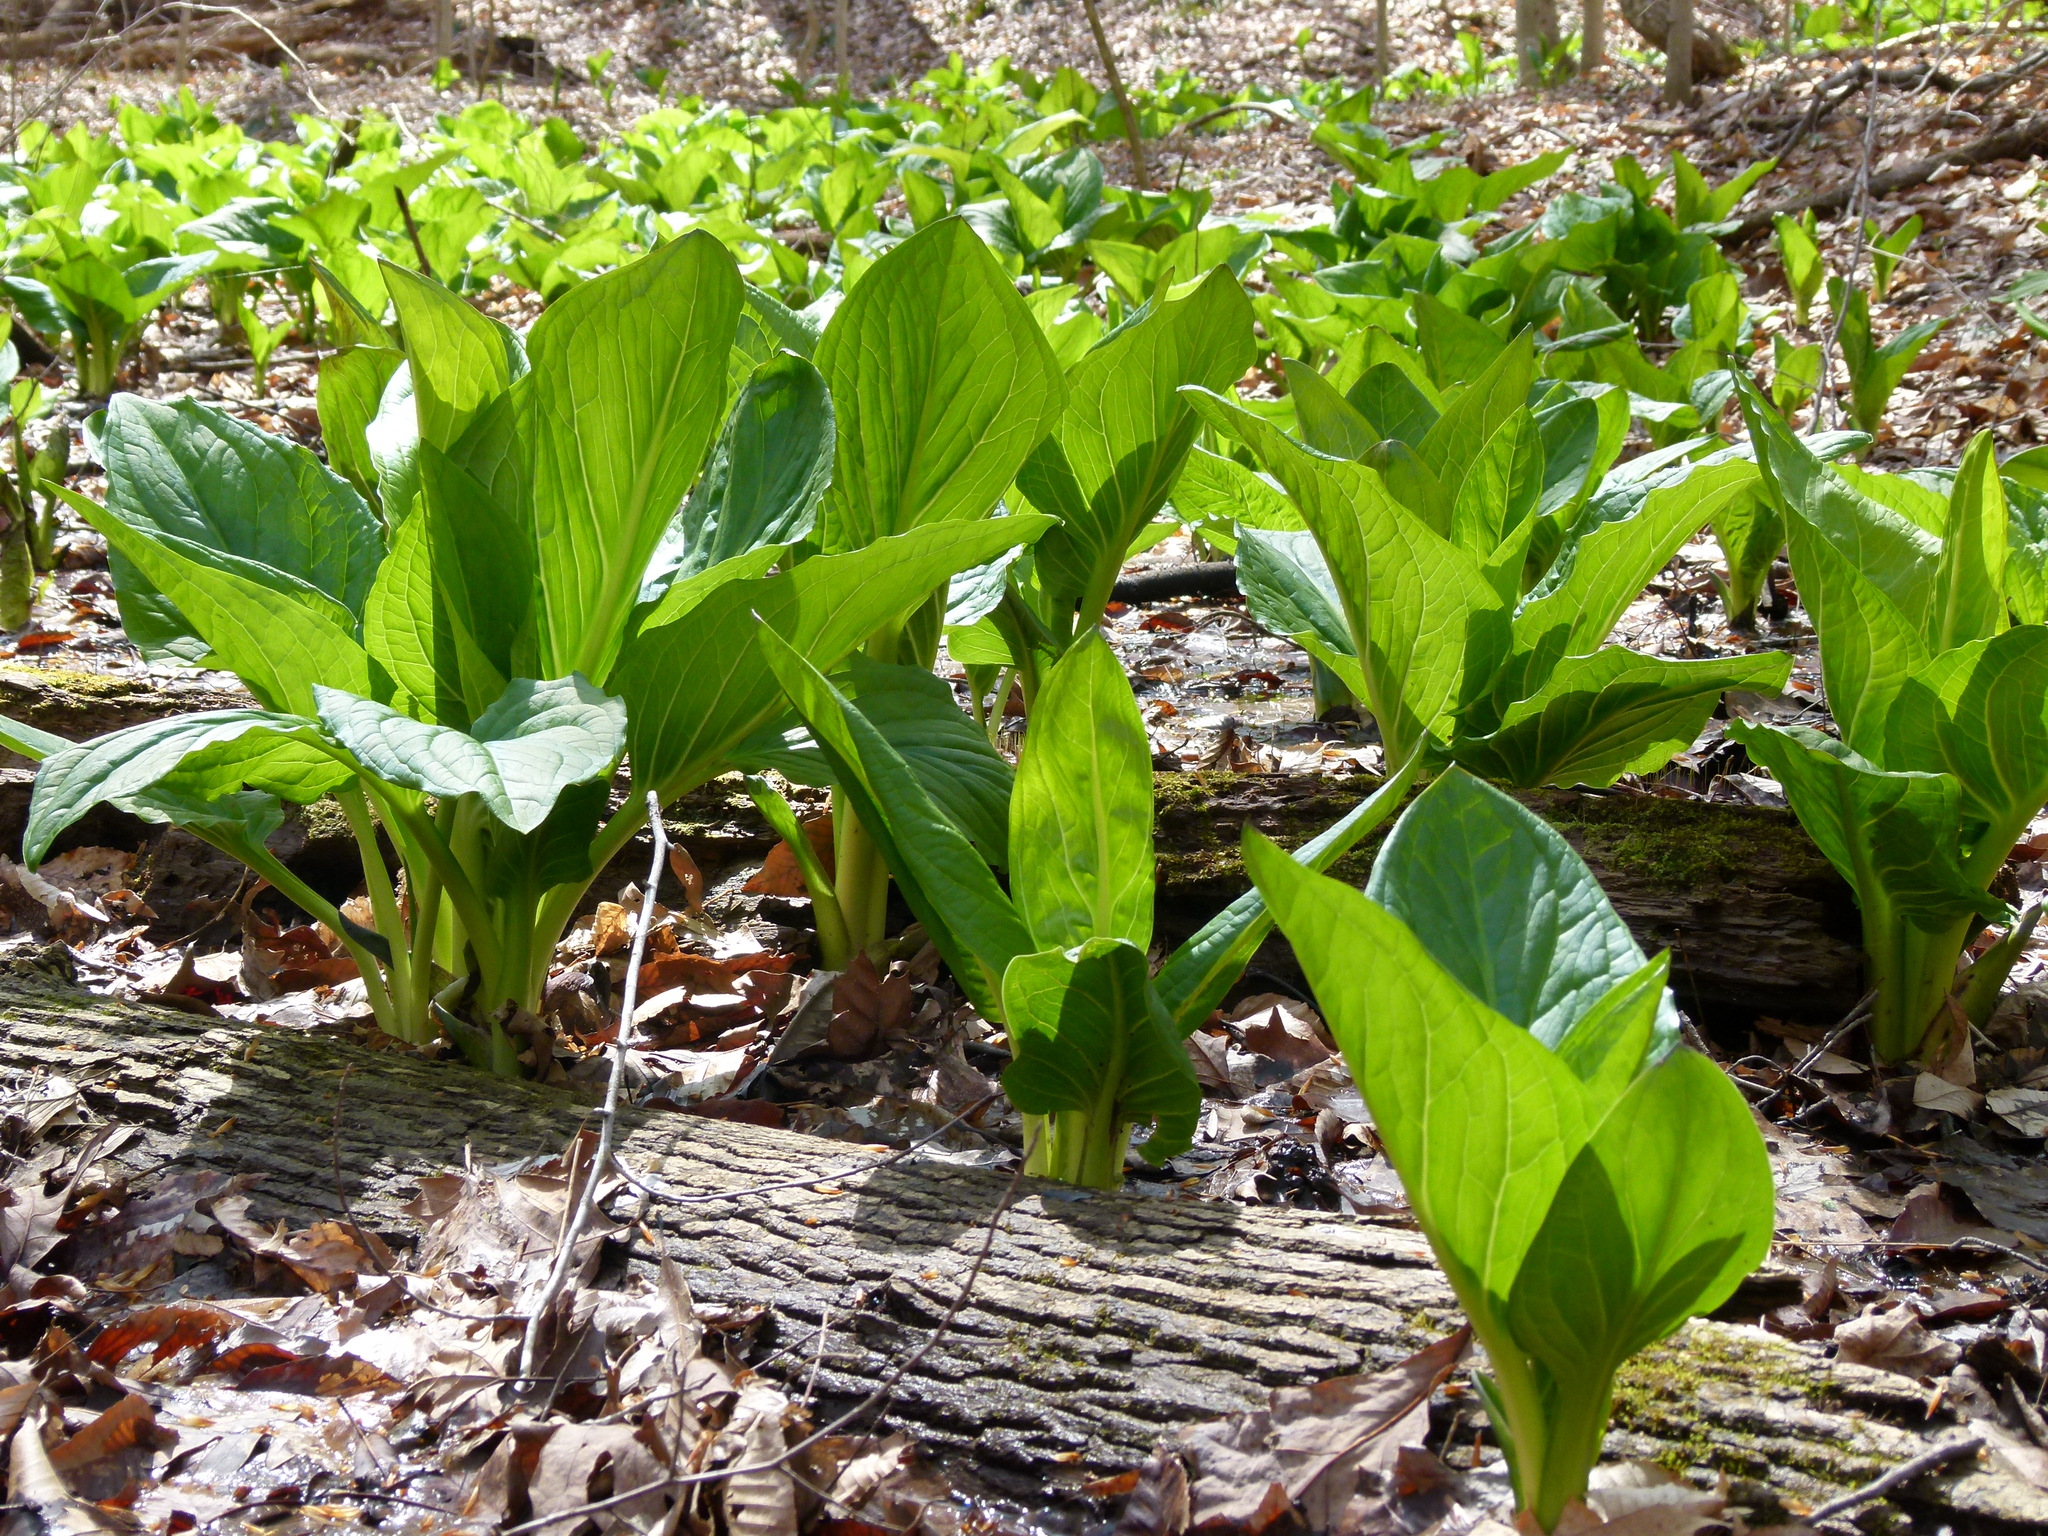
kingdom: Plantae
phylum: Tracheophyta
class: Liliopsida
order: Alismatales
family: Araceae
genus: Symplocarpus
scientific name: Symplocarpus foetidus
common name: Eastern skunk cabbage
